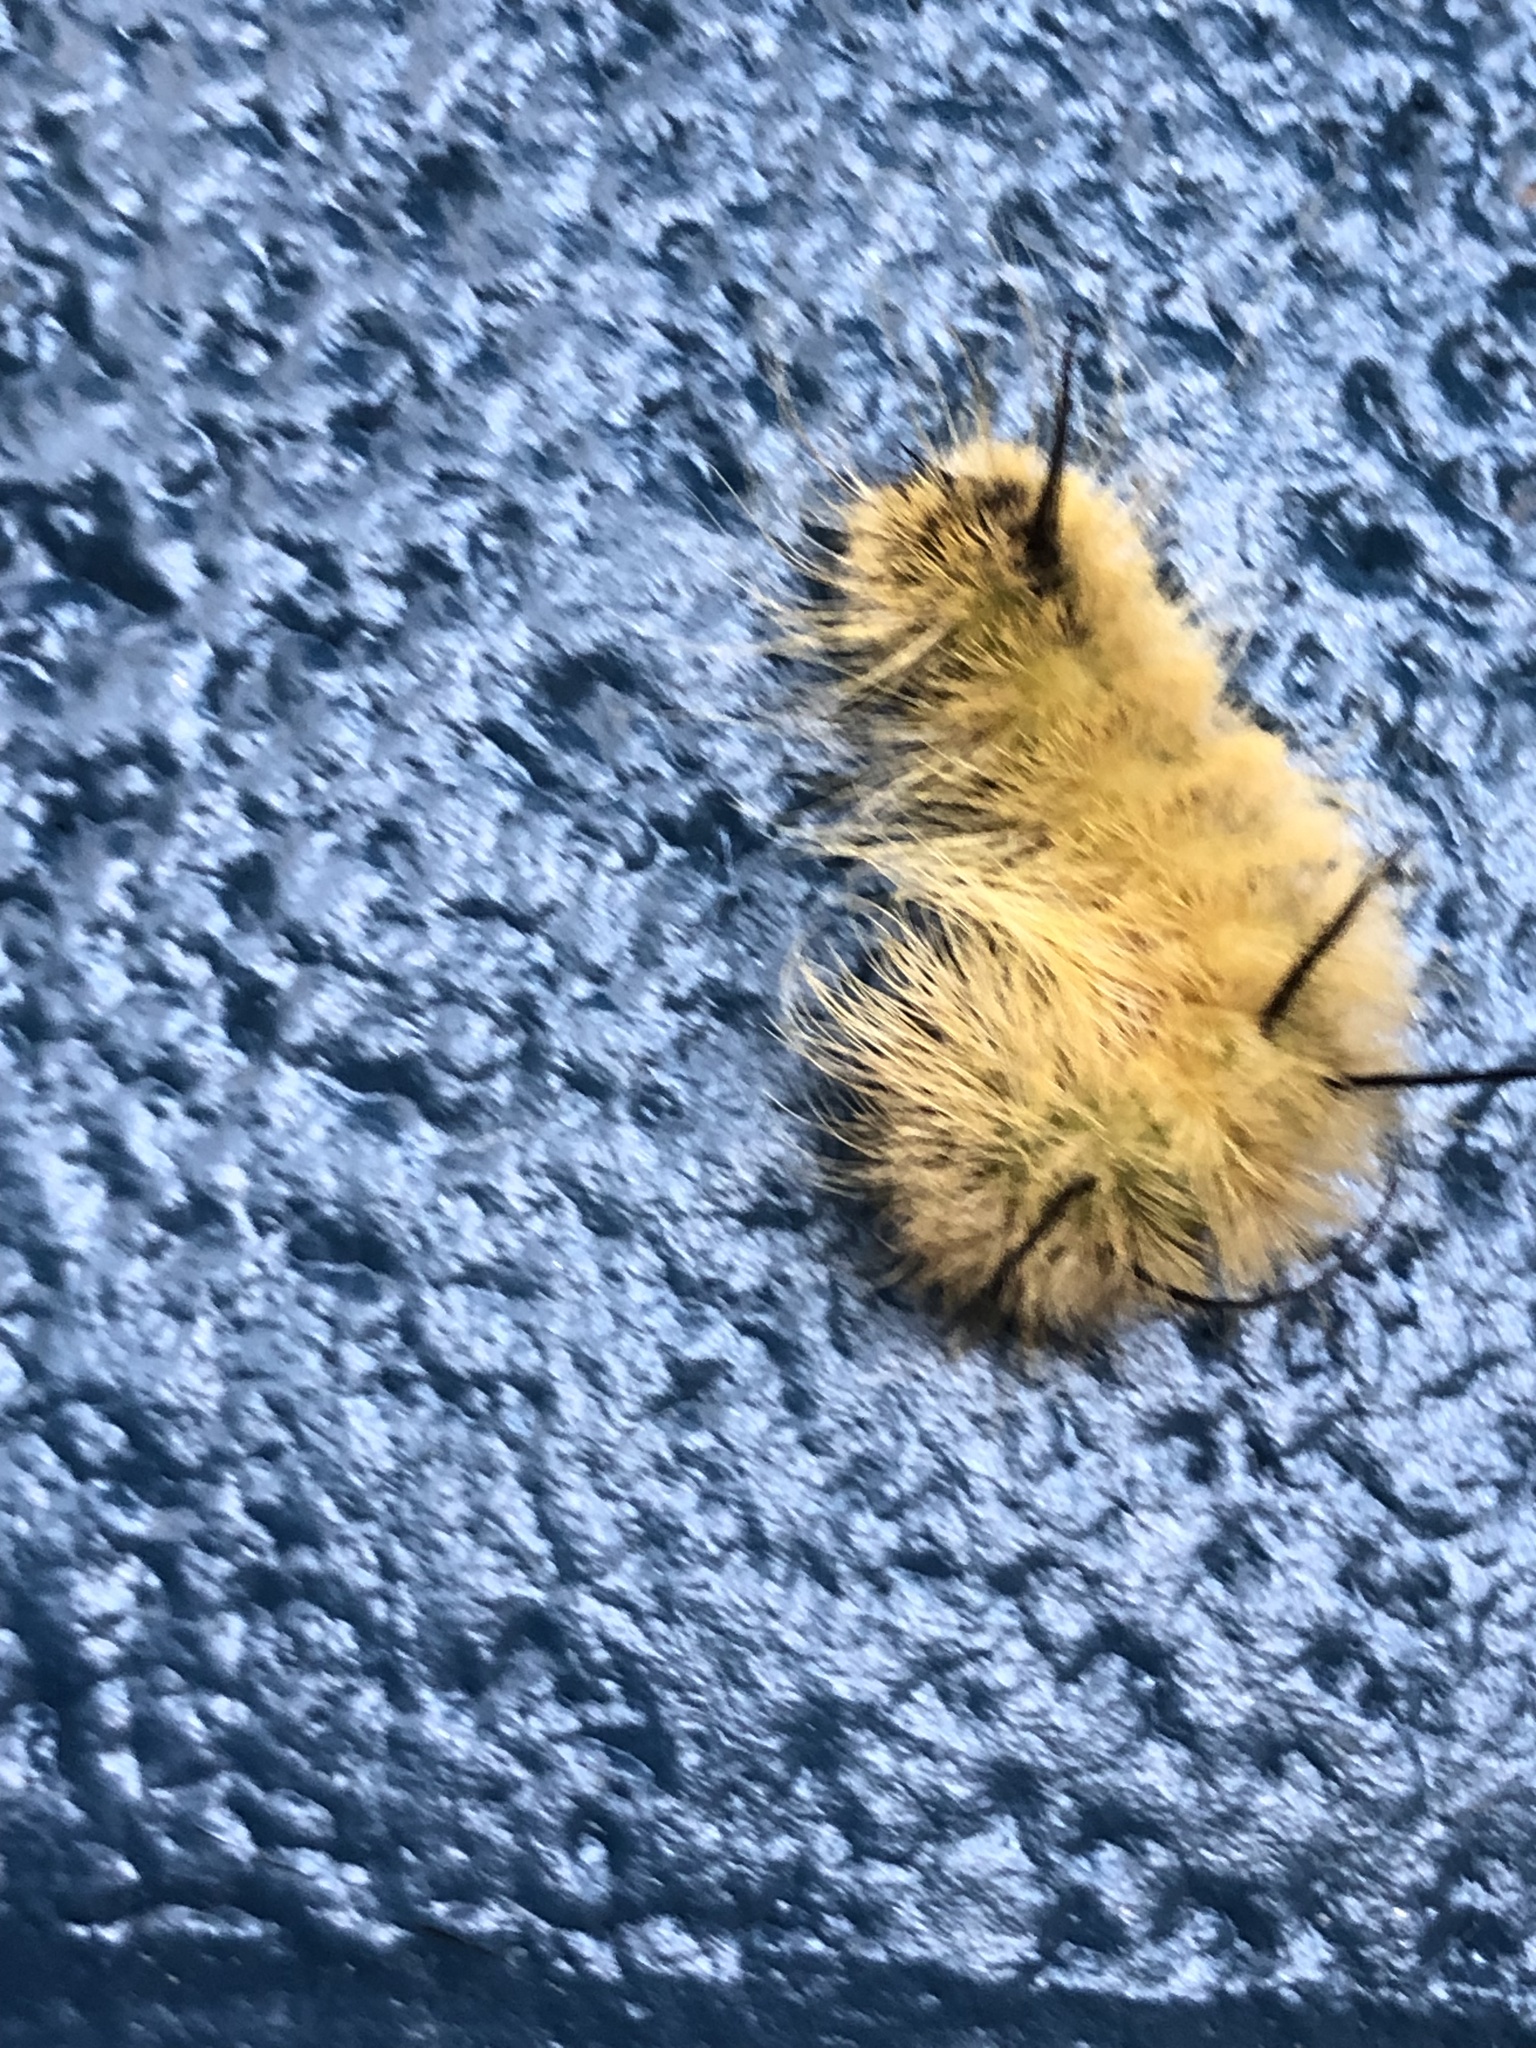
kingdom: Animalia
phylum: Arthropoda
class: Insecta
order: Lepidoptera
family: Noctuidae
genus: Acronicta
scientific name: Acronicta americana
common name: American dagger
